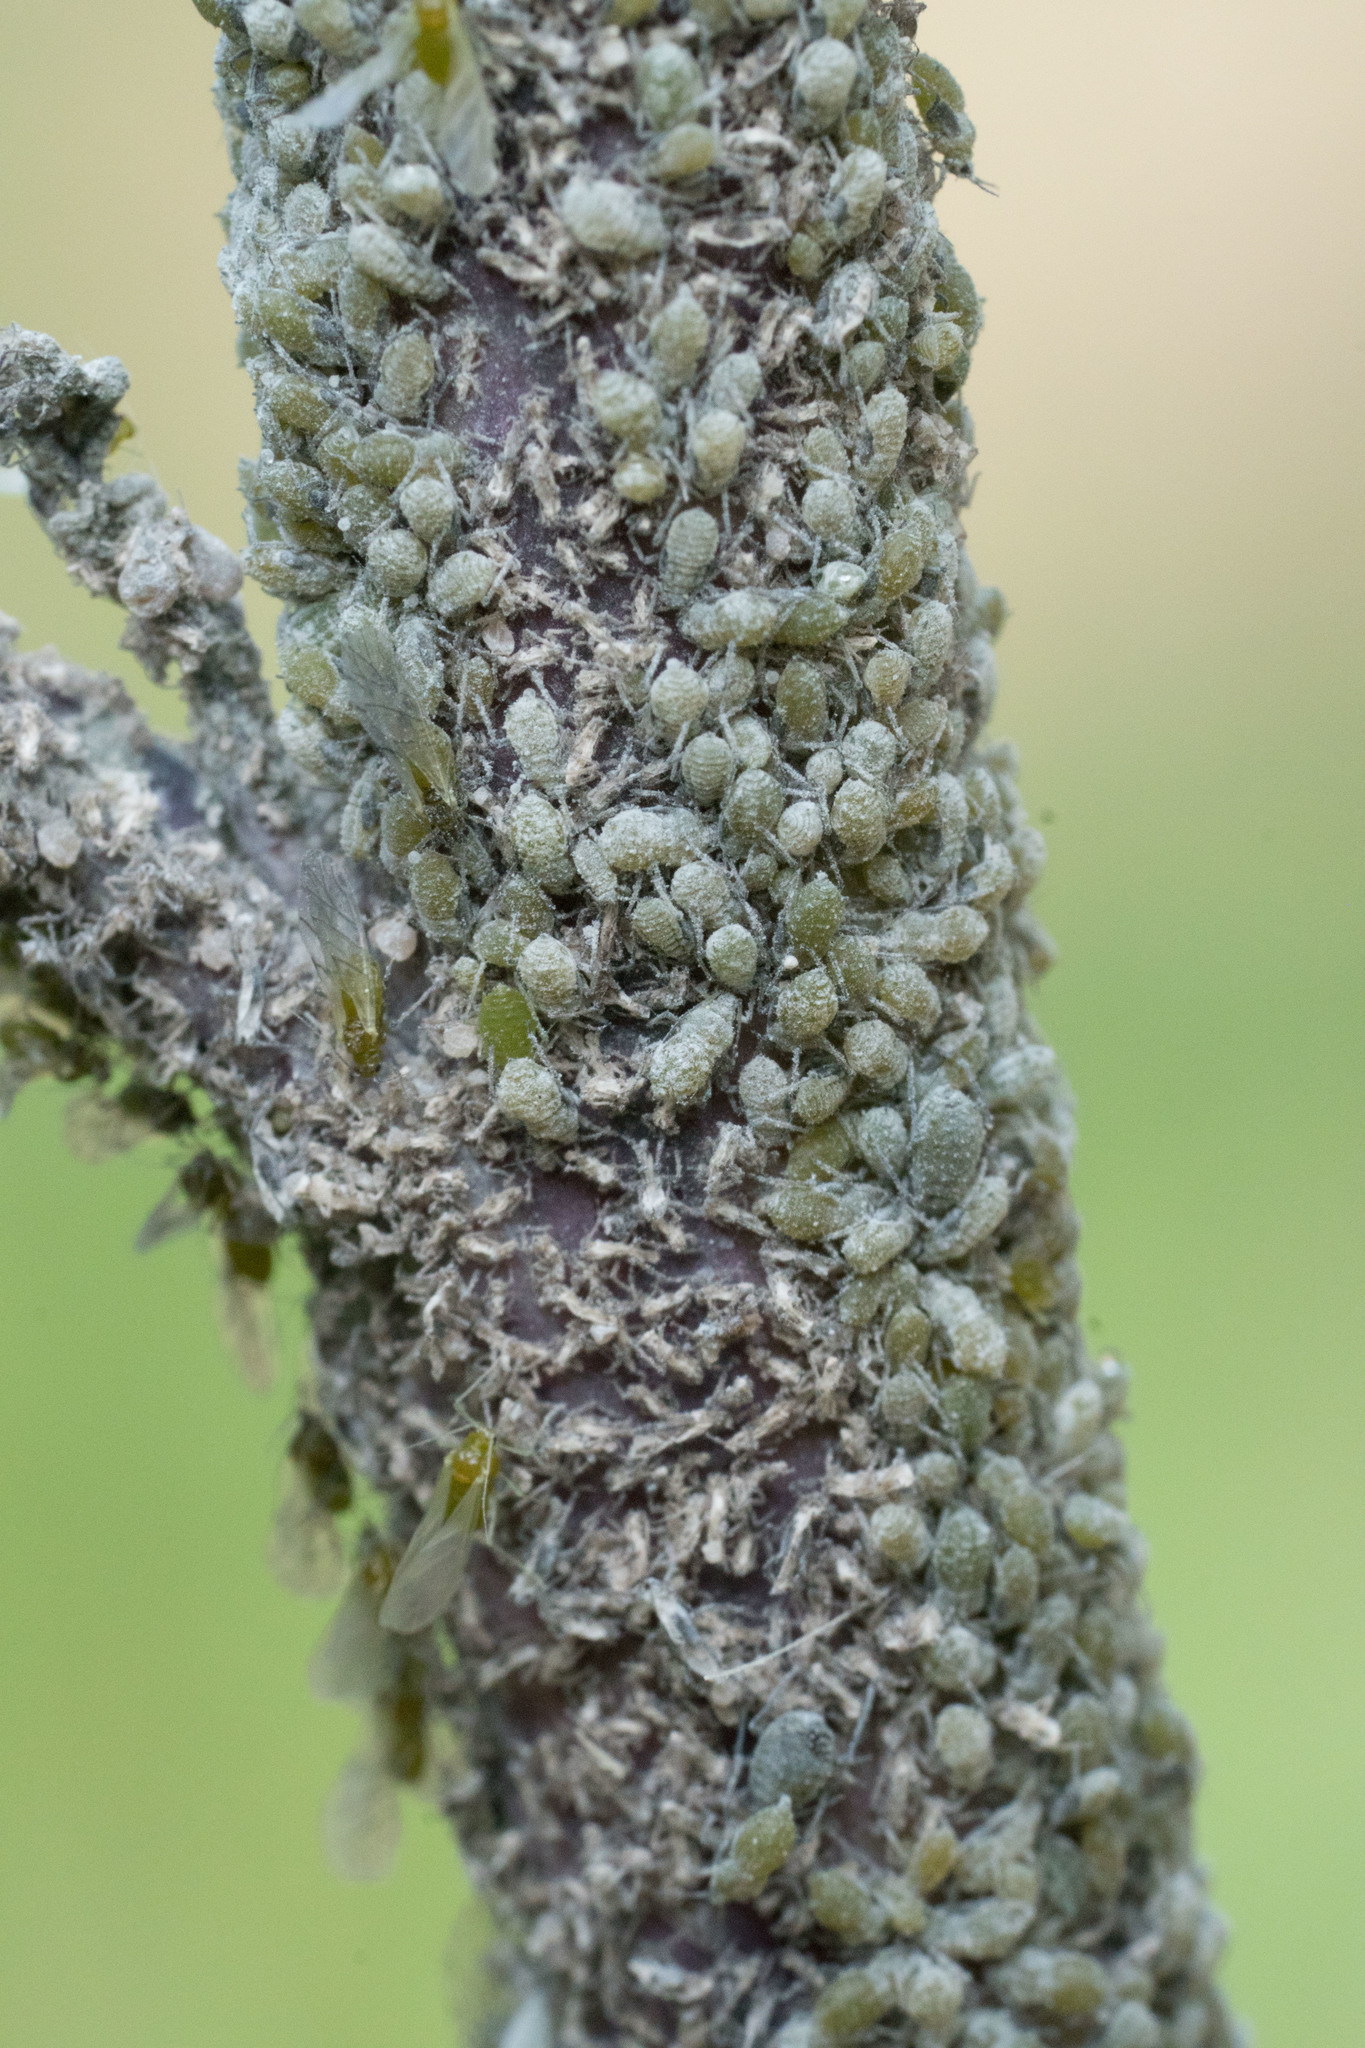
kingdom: Animalia
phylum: Arthropoda
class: Insecta
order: Hemiptera
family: Aphididae
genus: Brevicoryne
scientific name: Brevicoryne brassicae
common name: Cabbage aphid
